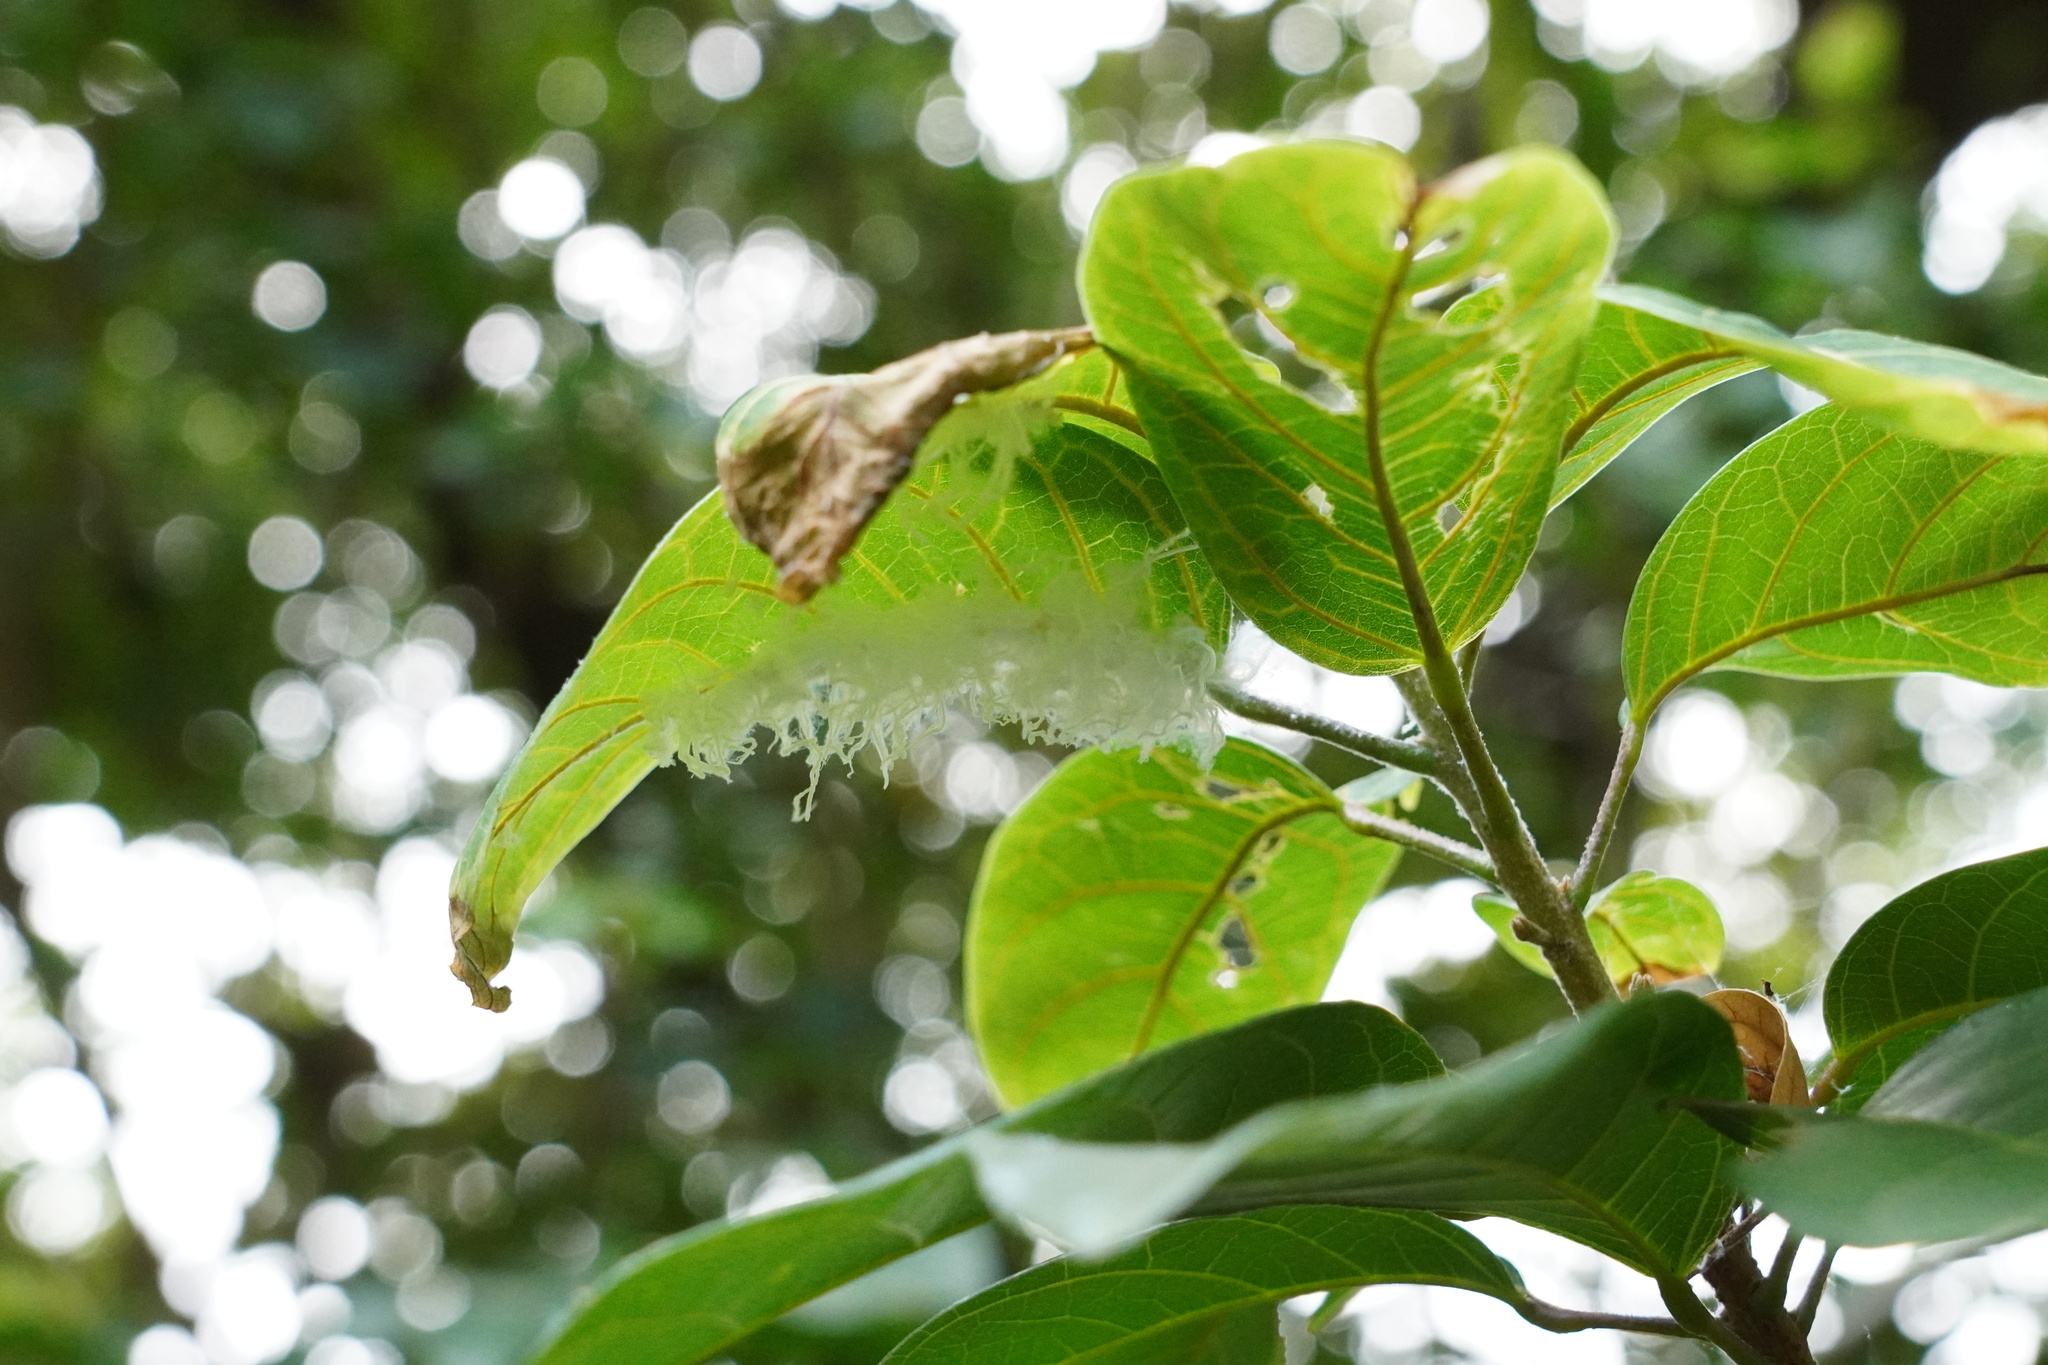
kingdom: Animalia
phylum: Arthropoda
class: Insecta
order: Hemiptera
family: Margarodidae
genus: Icerya
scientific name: Icerya aegyptiaca
